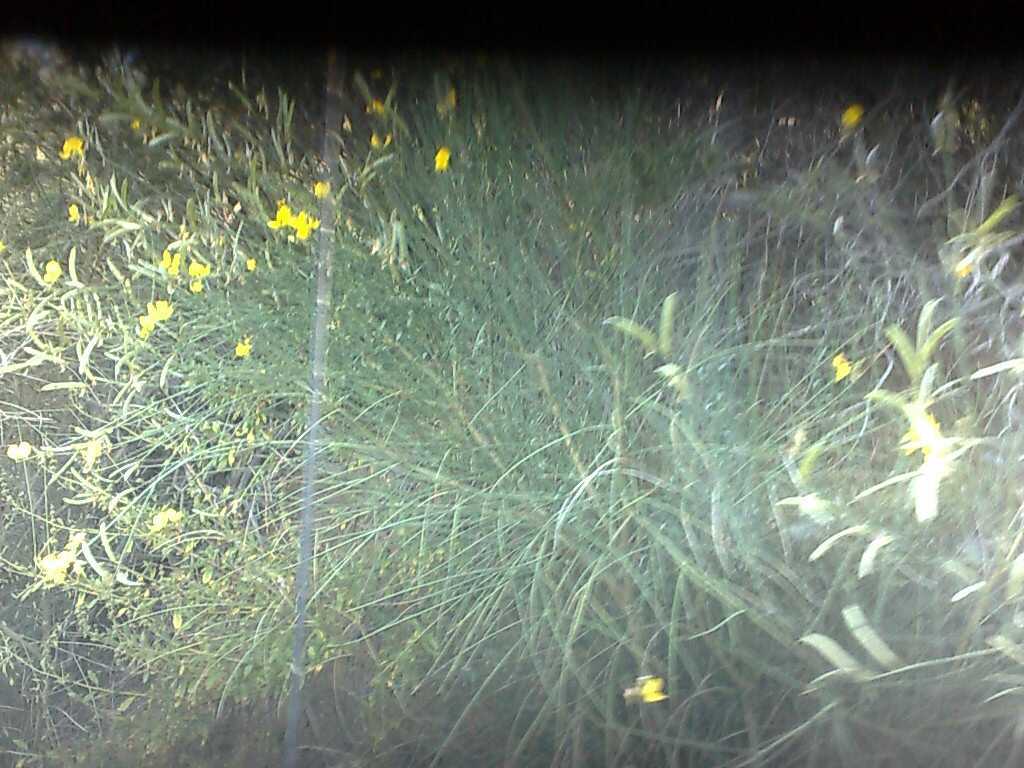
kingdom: Plantae
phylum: Tracheophyta
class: Magnoliopsida
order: Fabales
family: Fabaceae
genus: Spartium
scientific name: Spartium junceum
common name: Spanish broom
